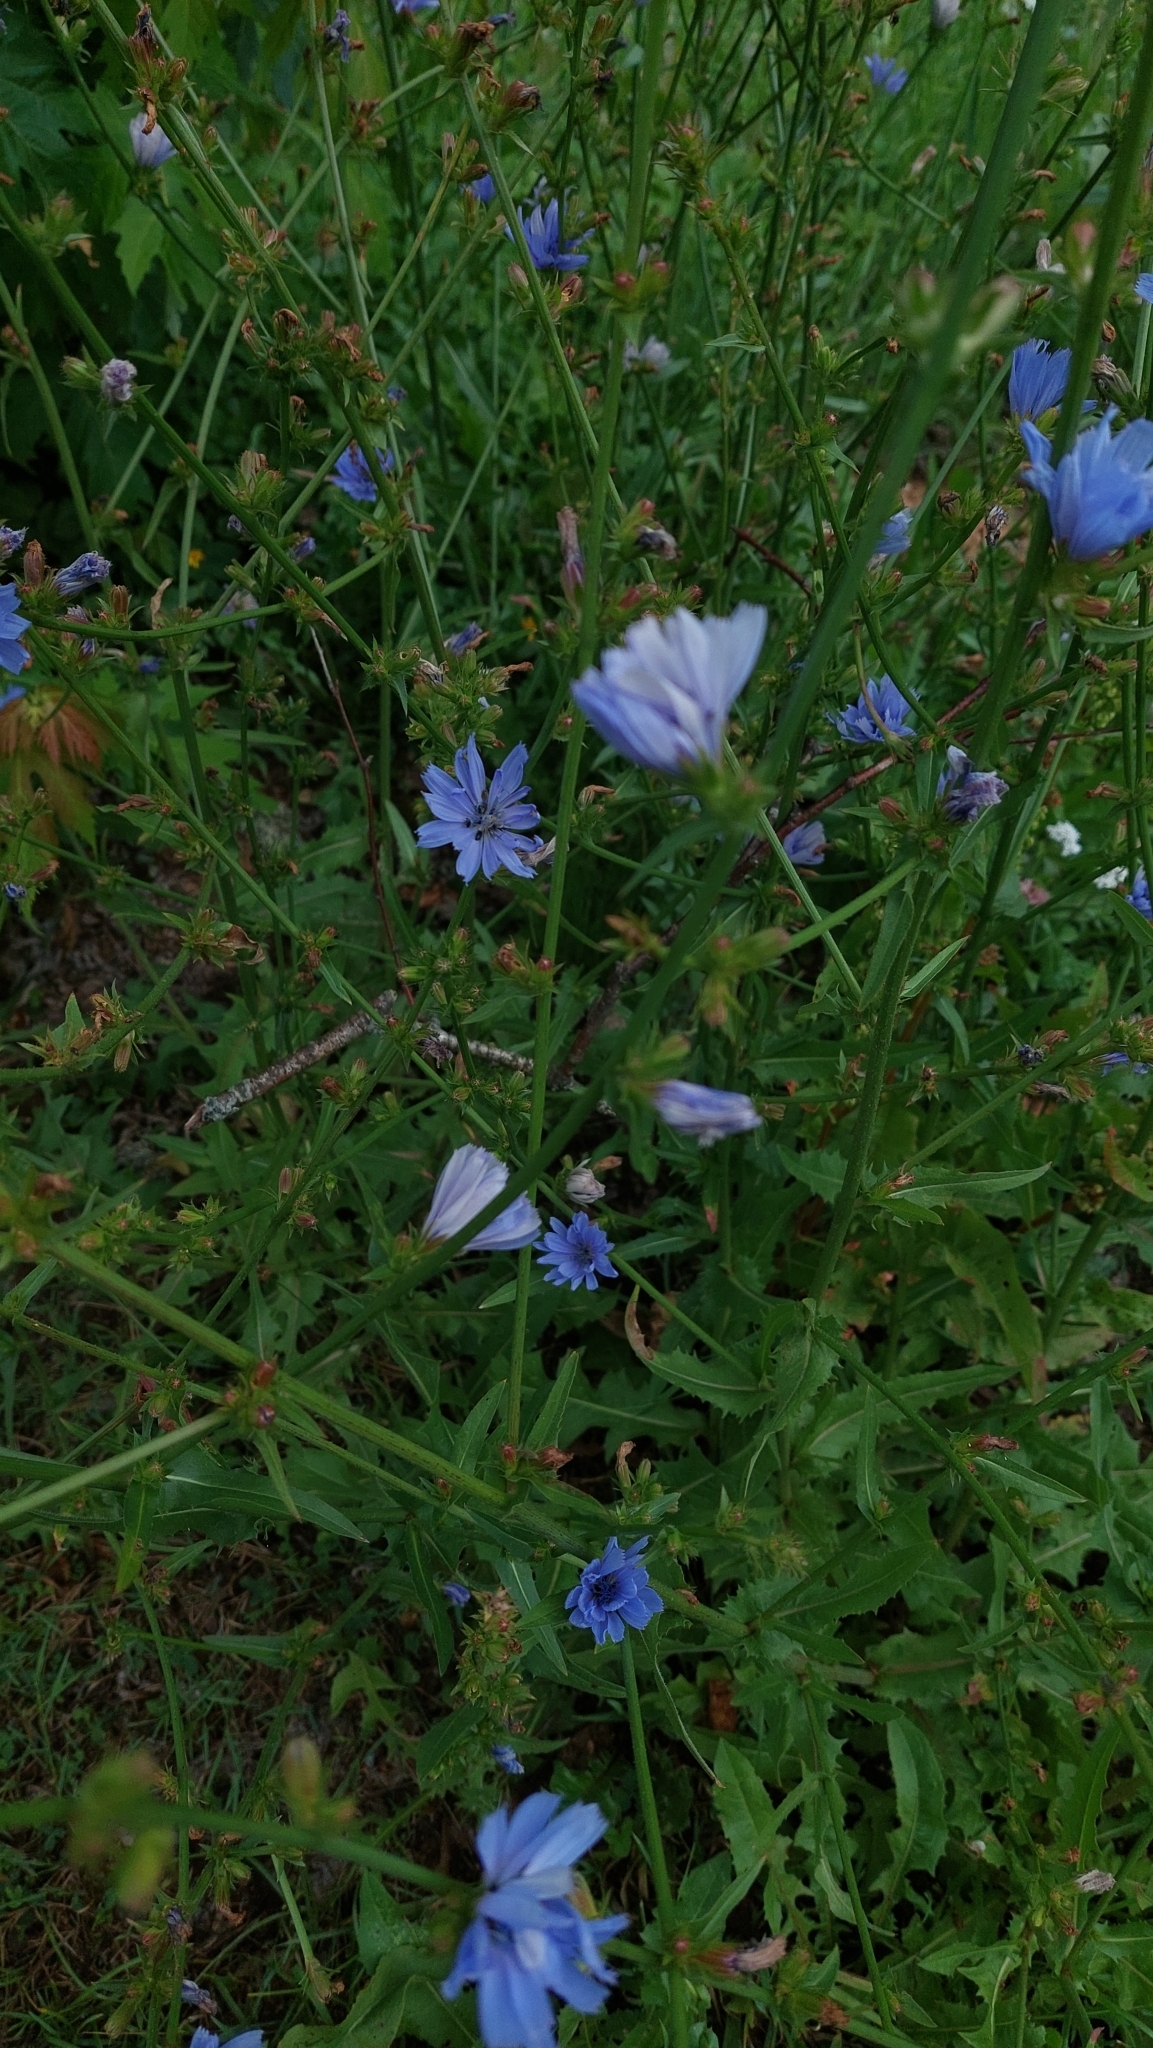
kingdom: Plantae
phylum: Tracheophyta
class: Magnoliopsida
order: Asterales
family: Asteraceae
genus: Cichorium
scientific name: Cichorium intybus
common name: Chicory
